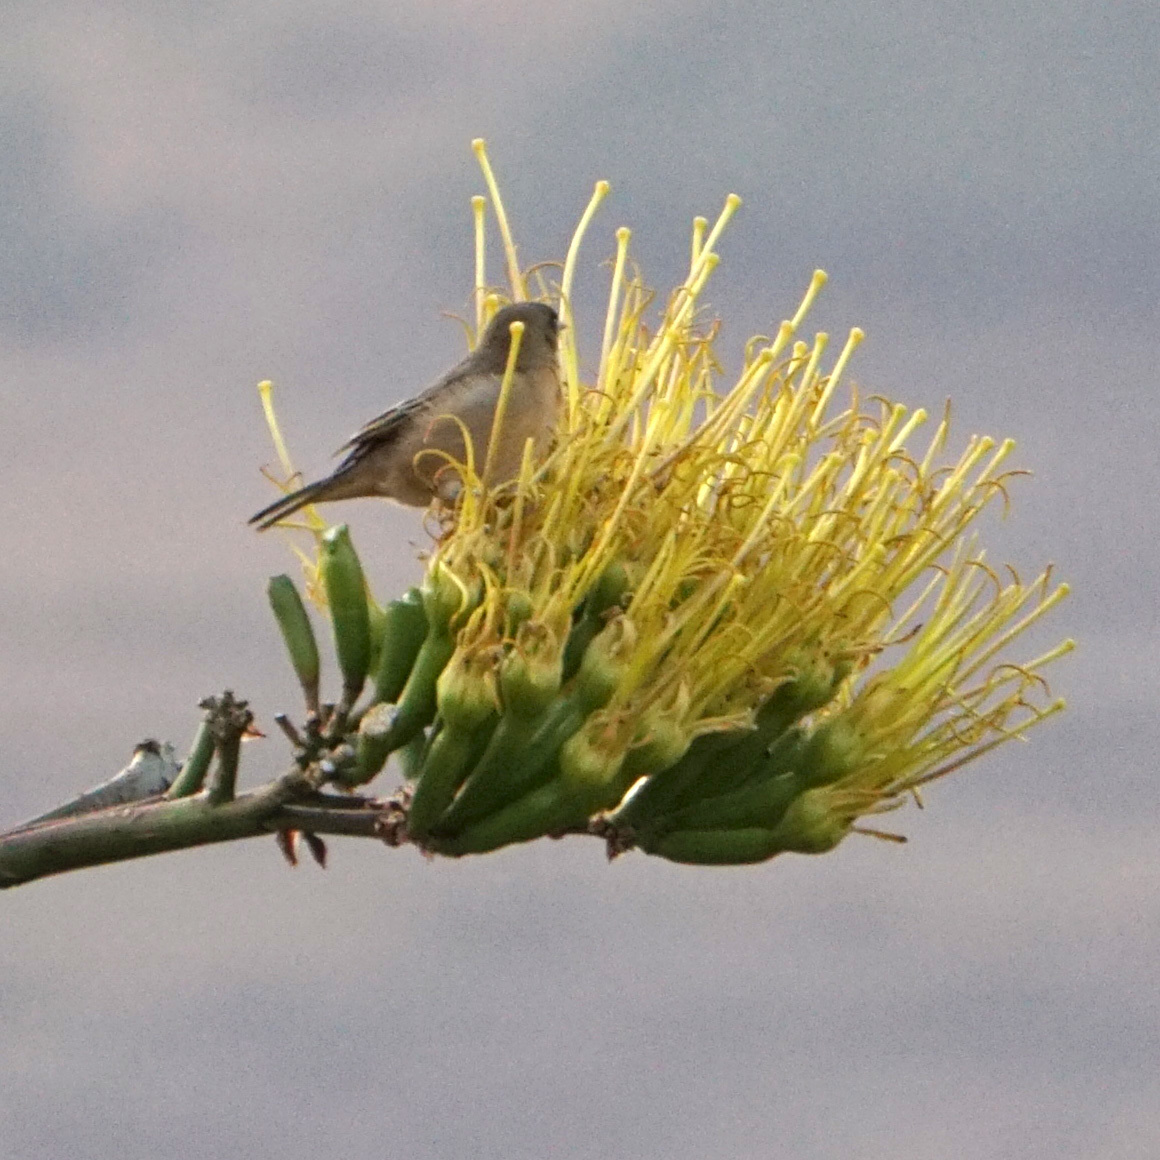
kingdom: Animalia
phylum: Chordata
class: Aves
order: Passeriformes
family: Ploceidae
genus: Ploceus
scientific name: Ploceus baglafecht
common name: Baglafecht weaver
